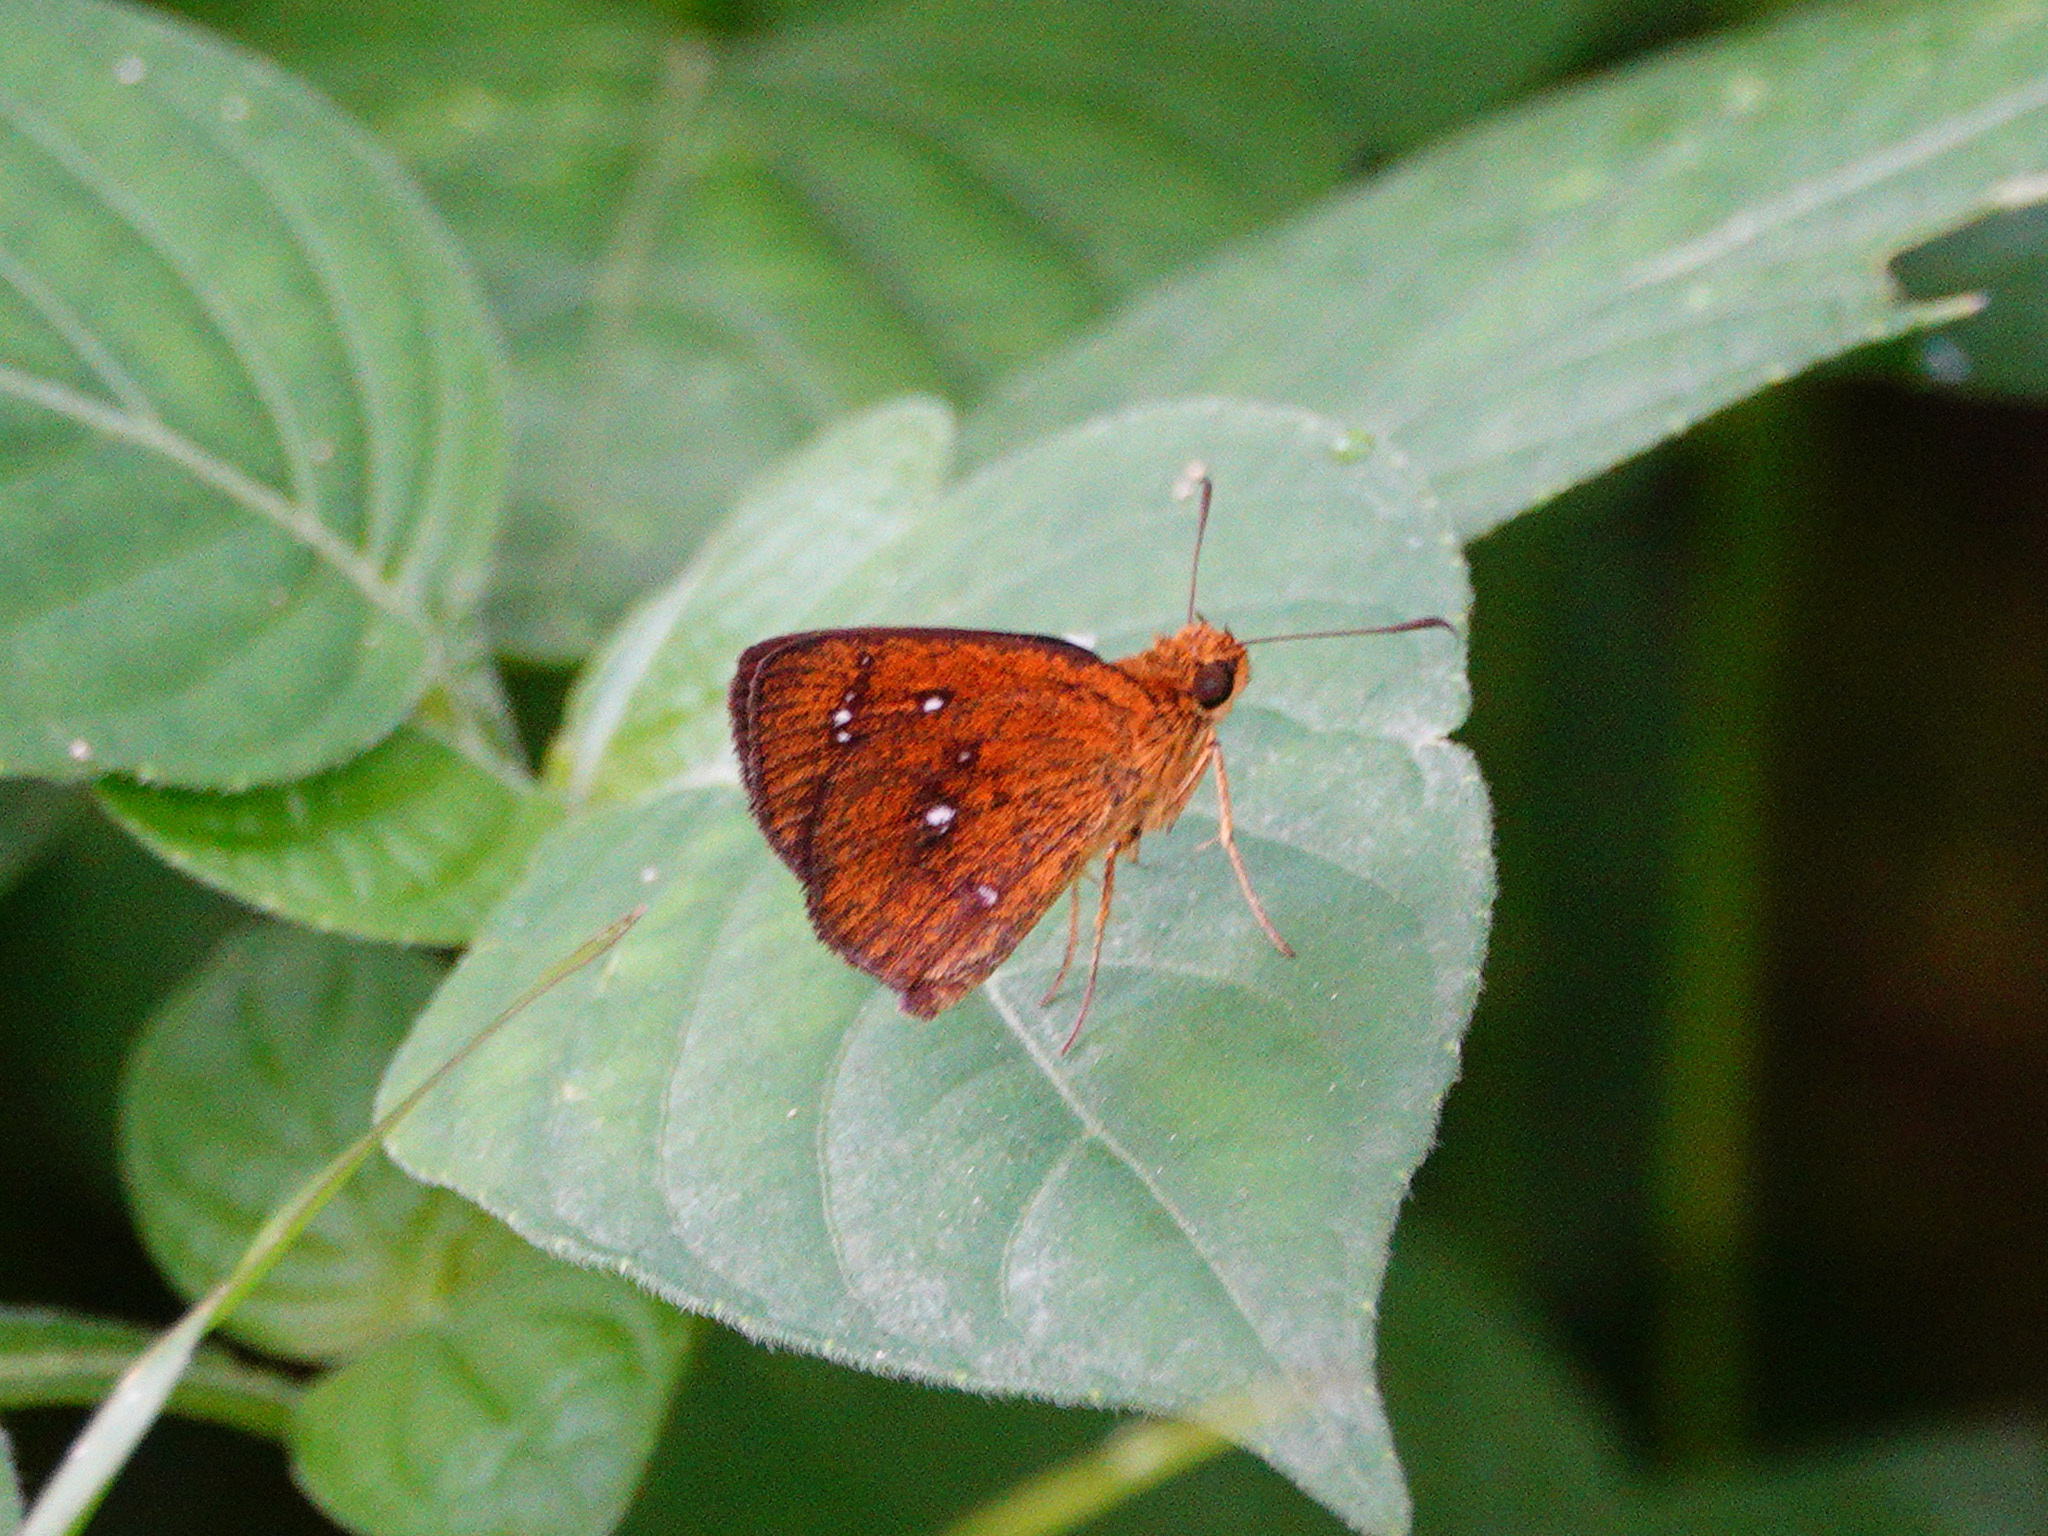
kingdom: Animalia
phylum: Arthropoda
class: Insecta
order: Lepidoptera
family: Hesperiidae
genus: Iambrix
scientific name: Iambrix salsala
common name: Chestnut bob
